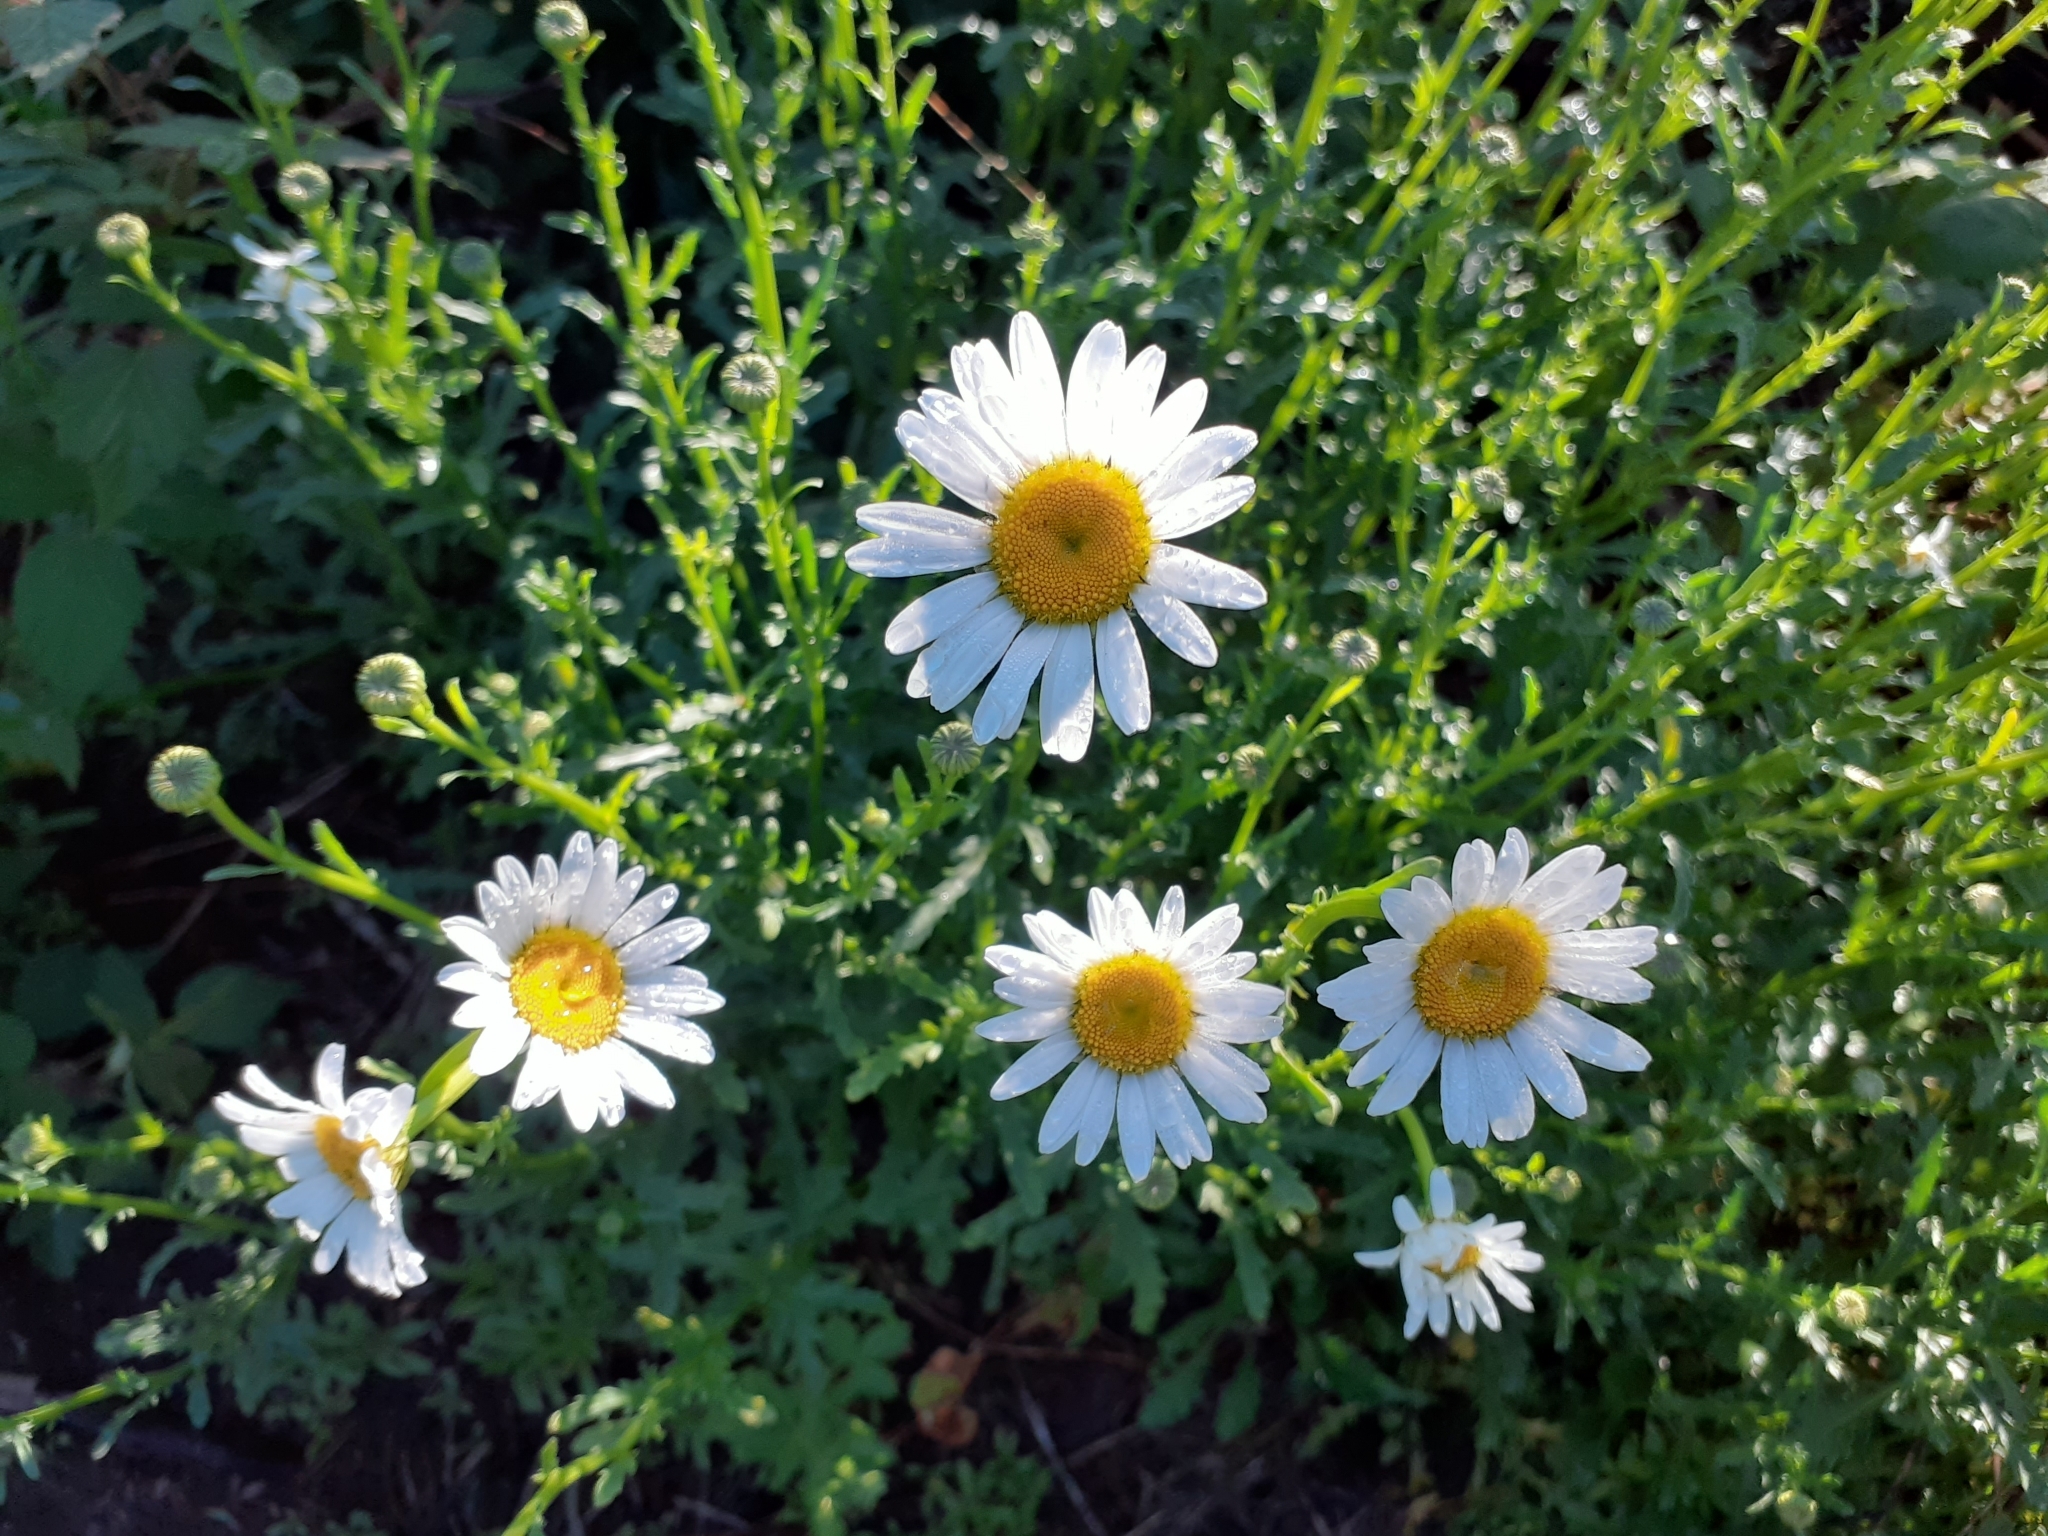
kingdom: Plantae
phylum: Tracheophyta
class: Magnoliopsida
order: Asterales
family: Asteraceae
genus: Leucanthemum
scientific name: Leucanthemum vulgare
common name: Oxeye daisy
